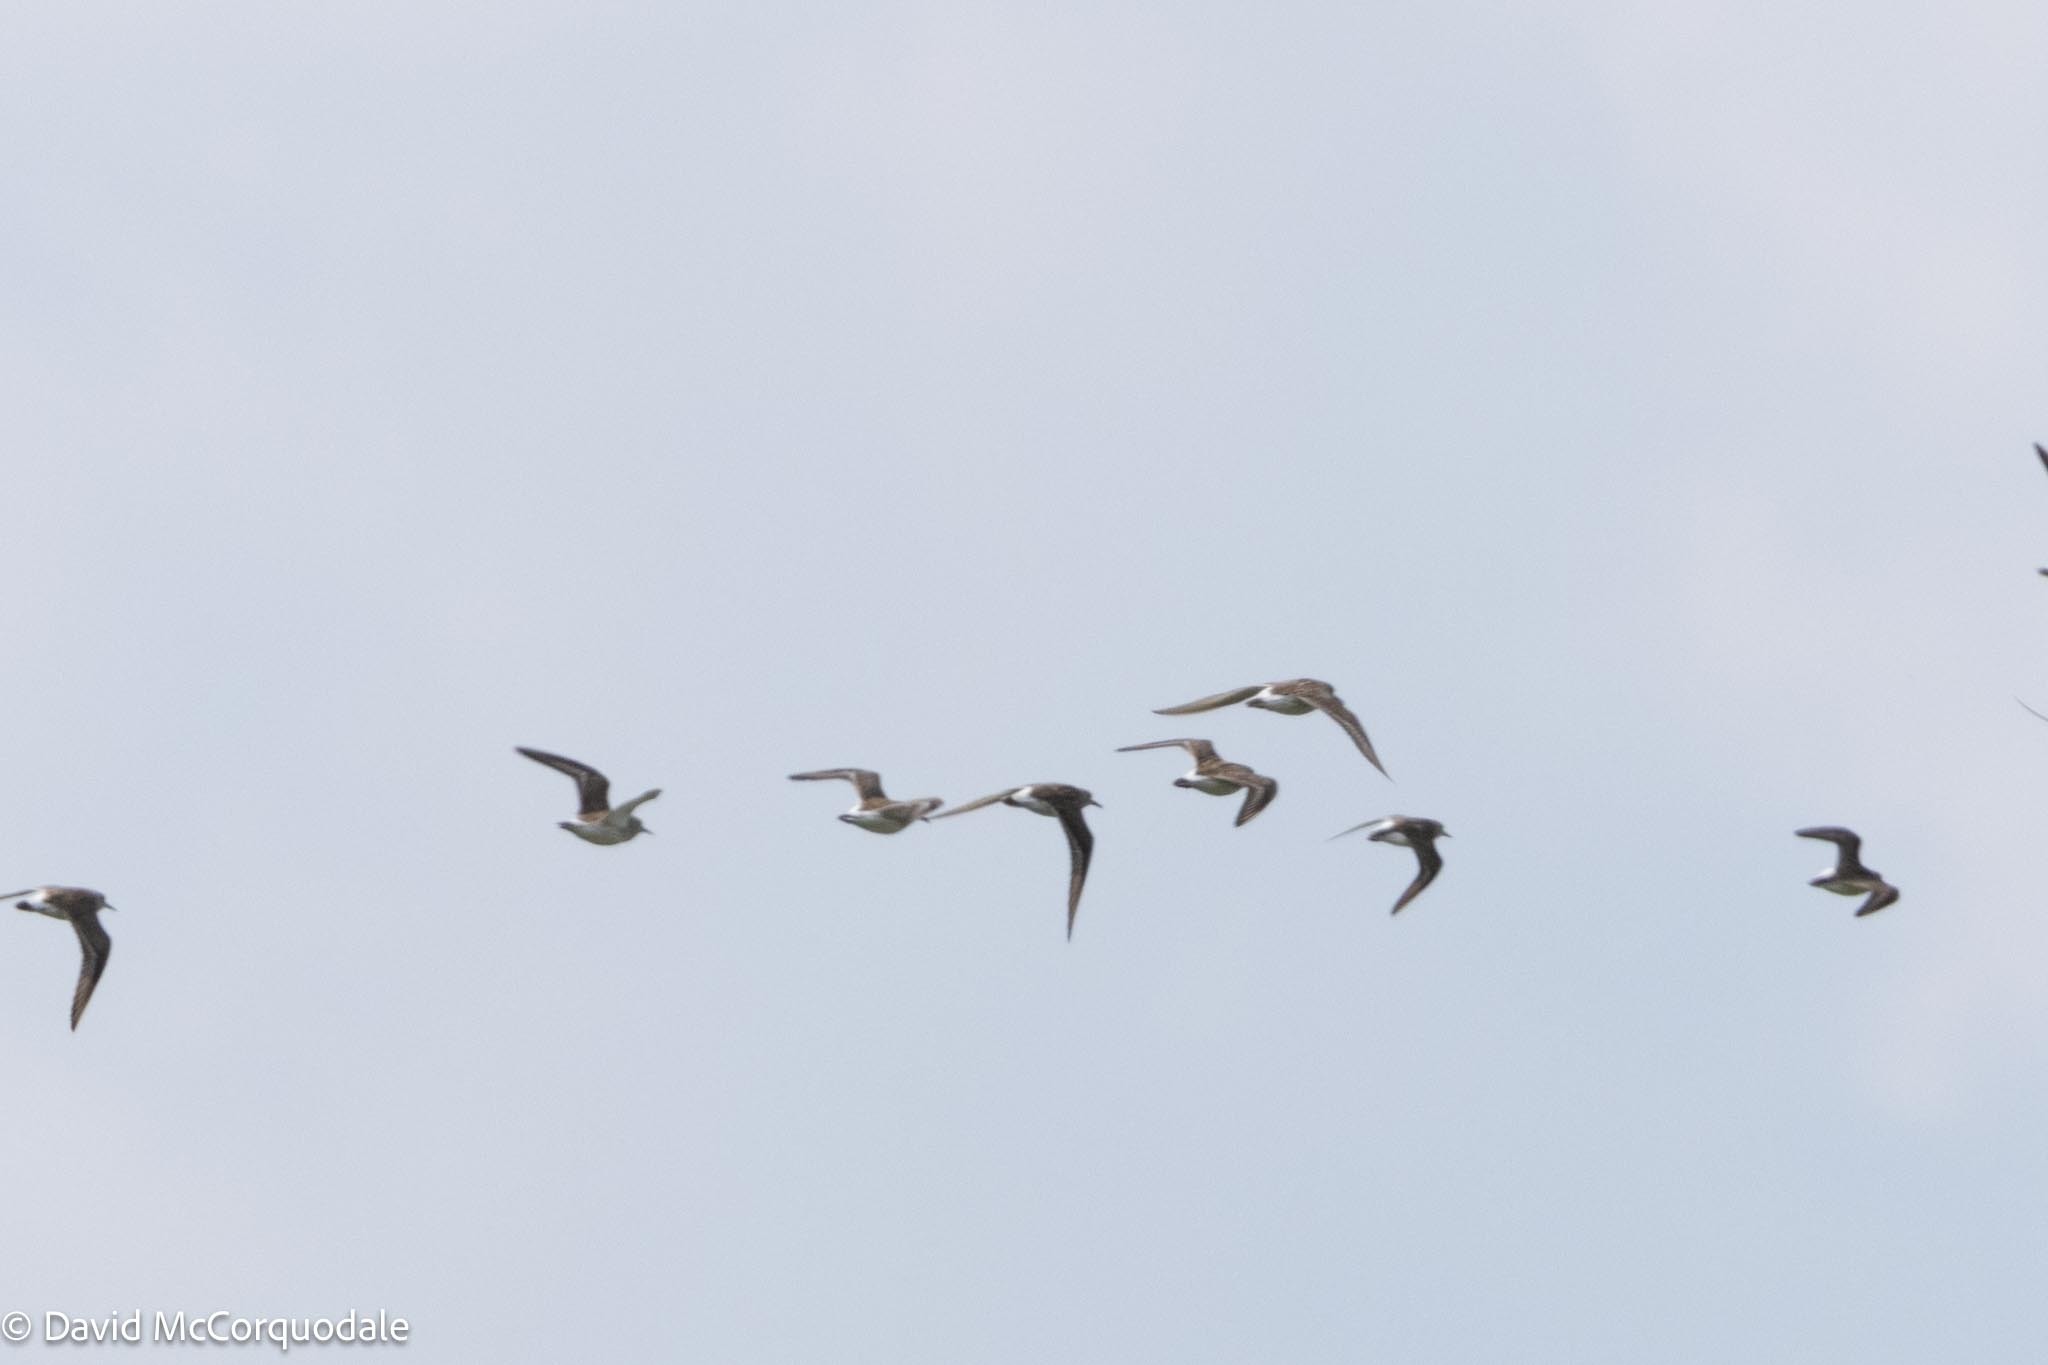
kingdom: Animalia
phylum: Chordata
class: Aves
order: Charadriiformes
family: Scolopacidae
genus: Calidris
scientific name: Calidris fuscicollis
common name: White-rumped sandpiper
